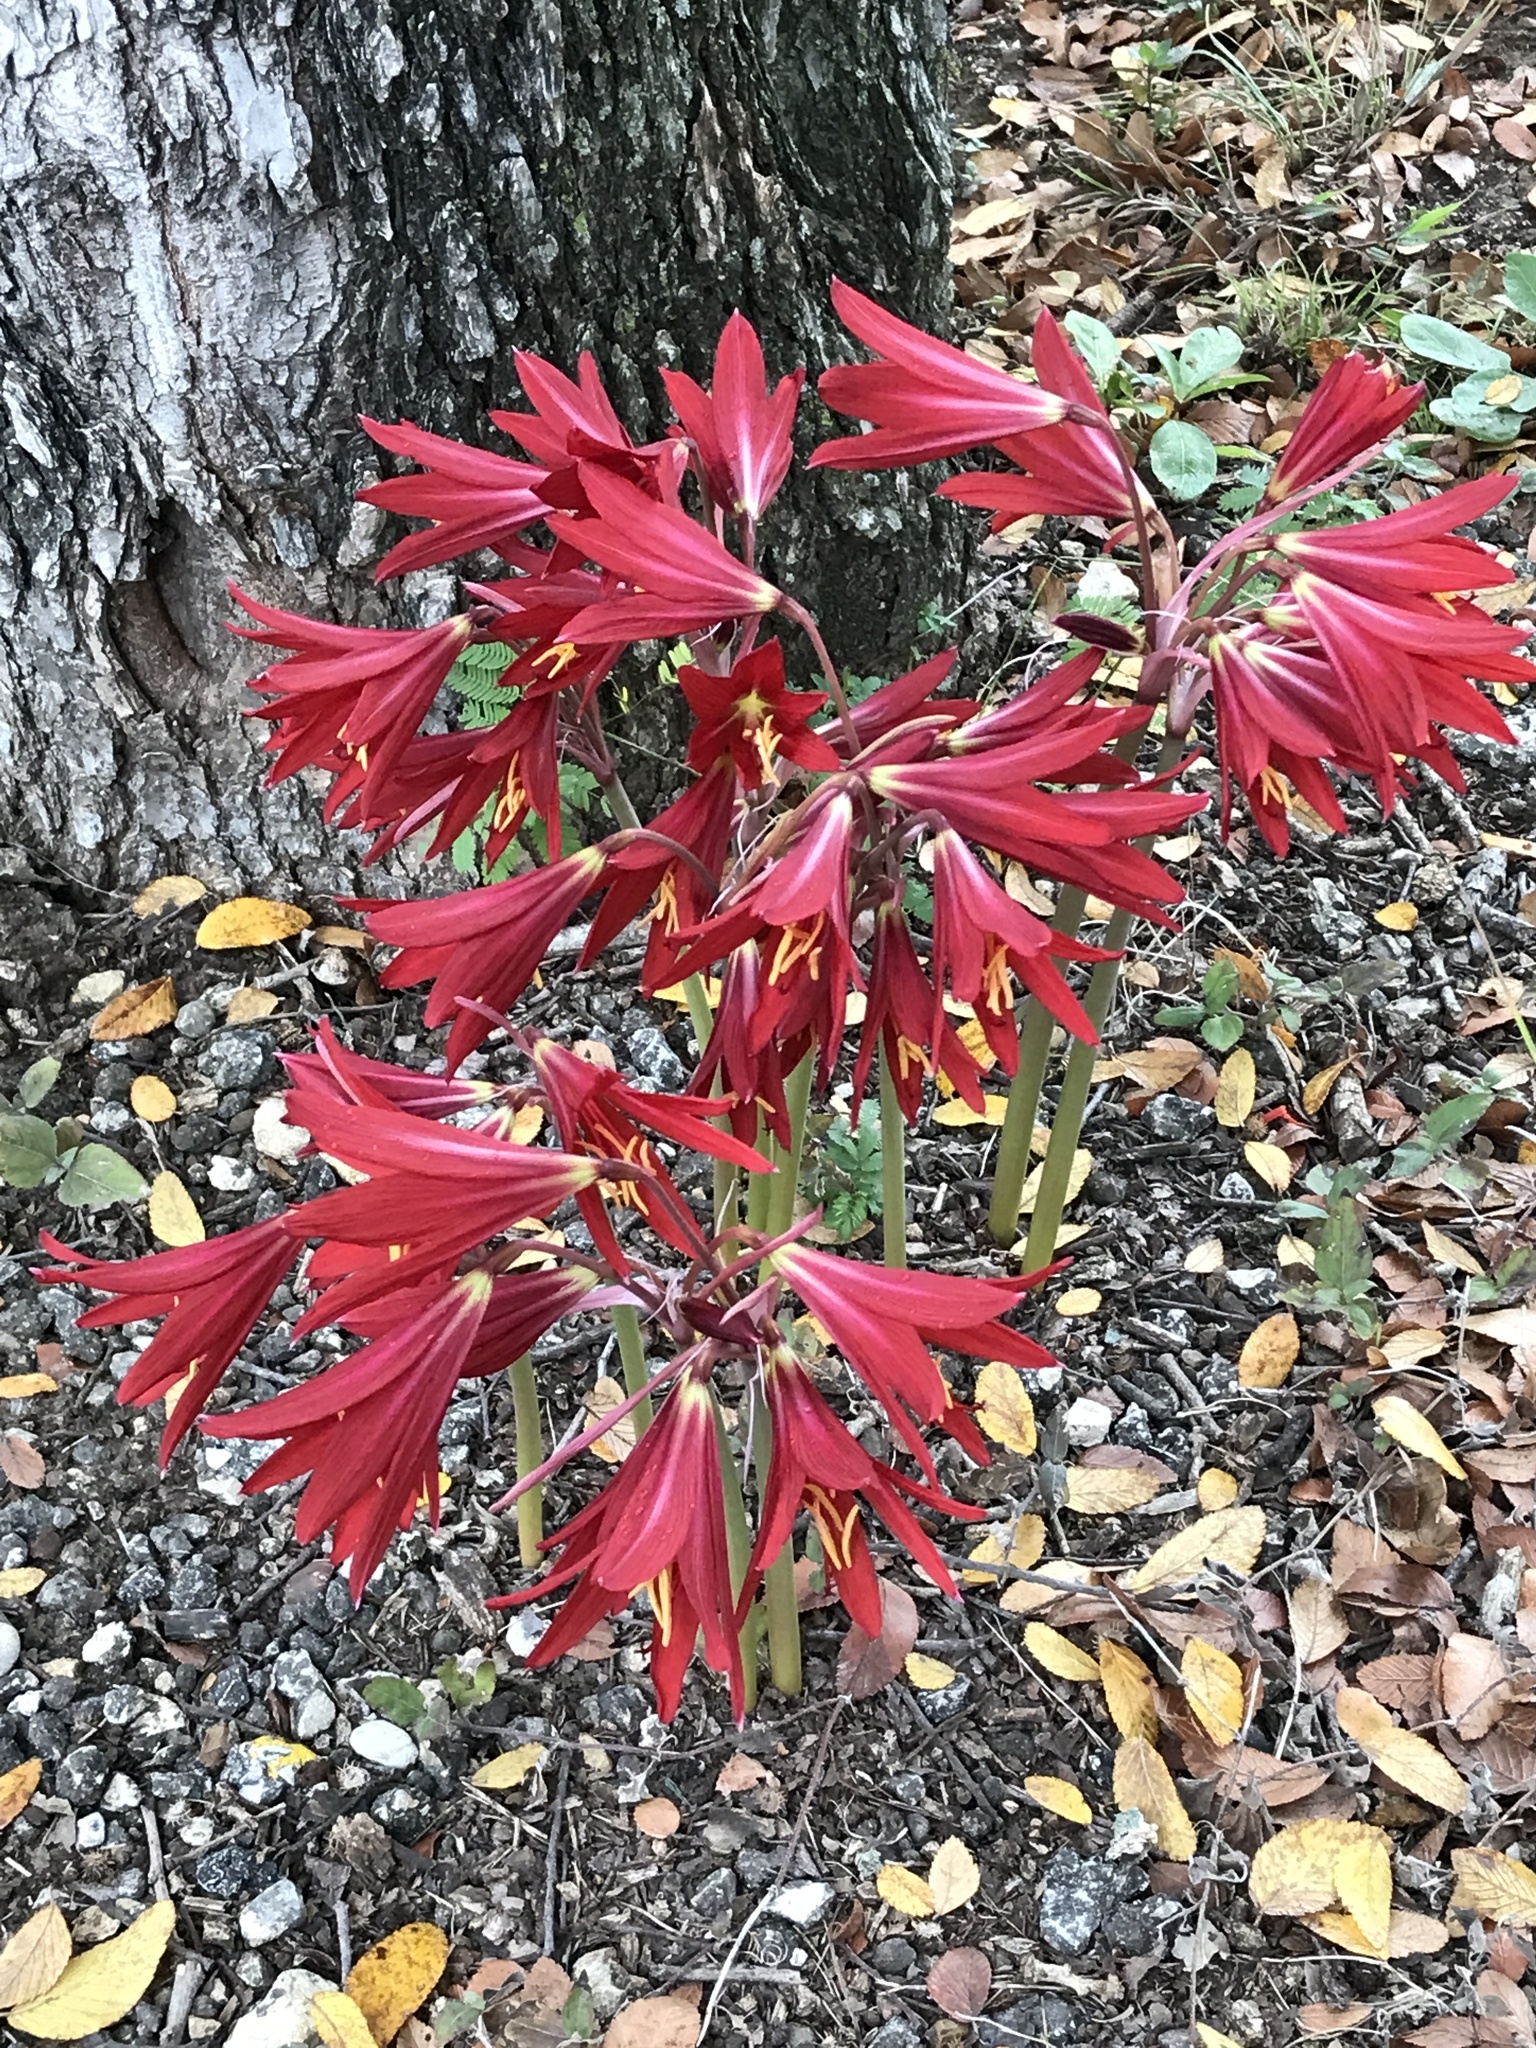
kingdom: Plantae
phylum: Tracheophyta
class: Liliopsida
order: Asparagales
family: Amaryllidaceae
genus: Zephyranthes
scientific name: Zephyranthes bifida
